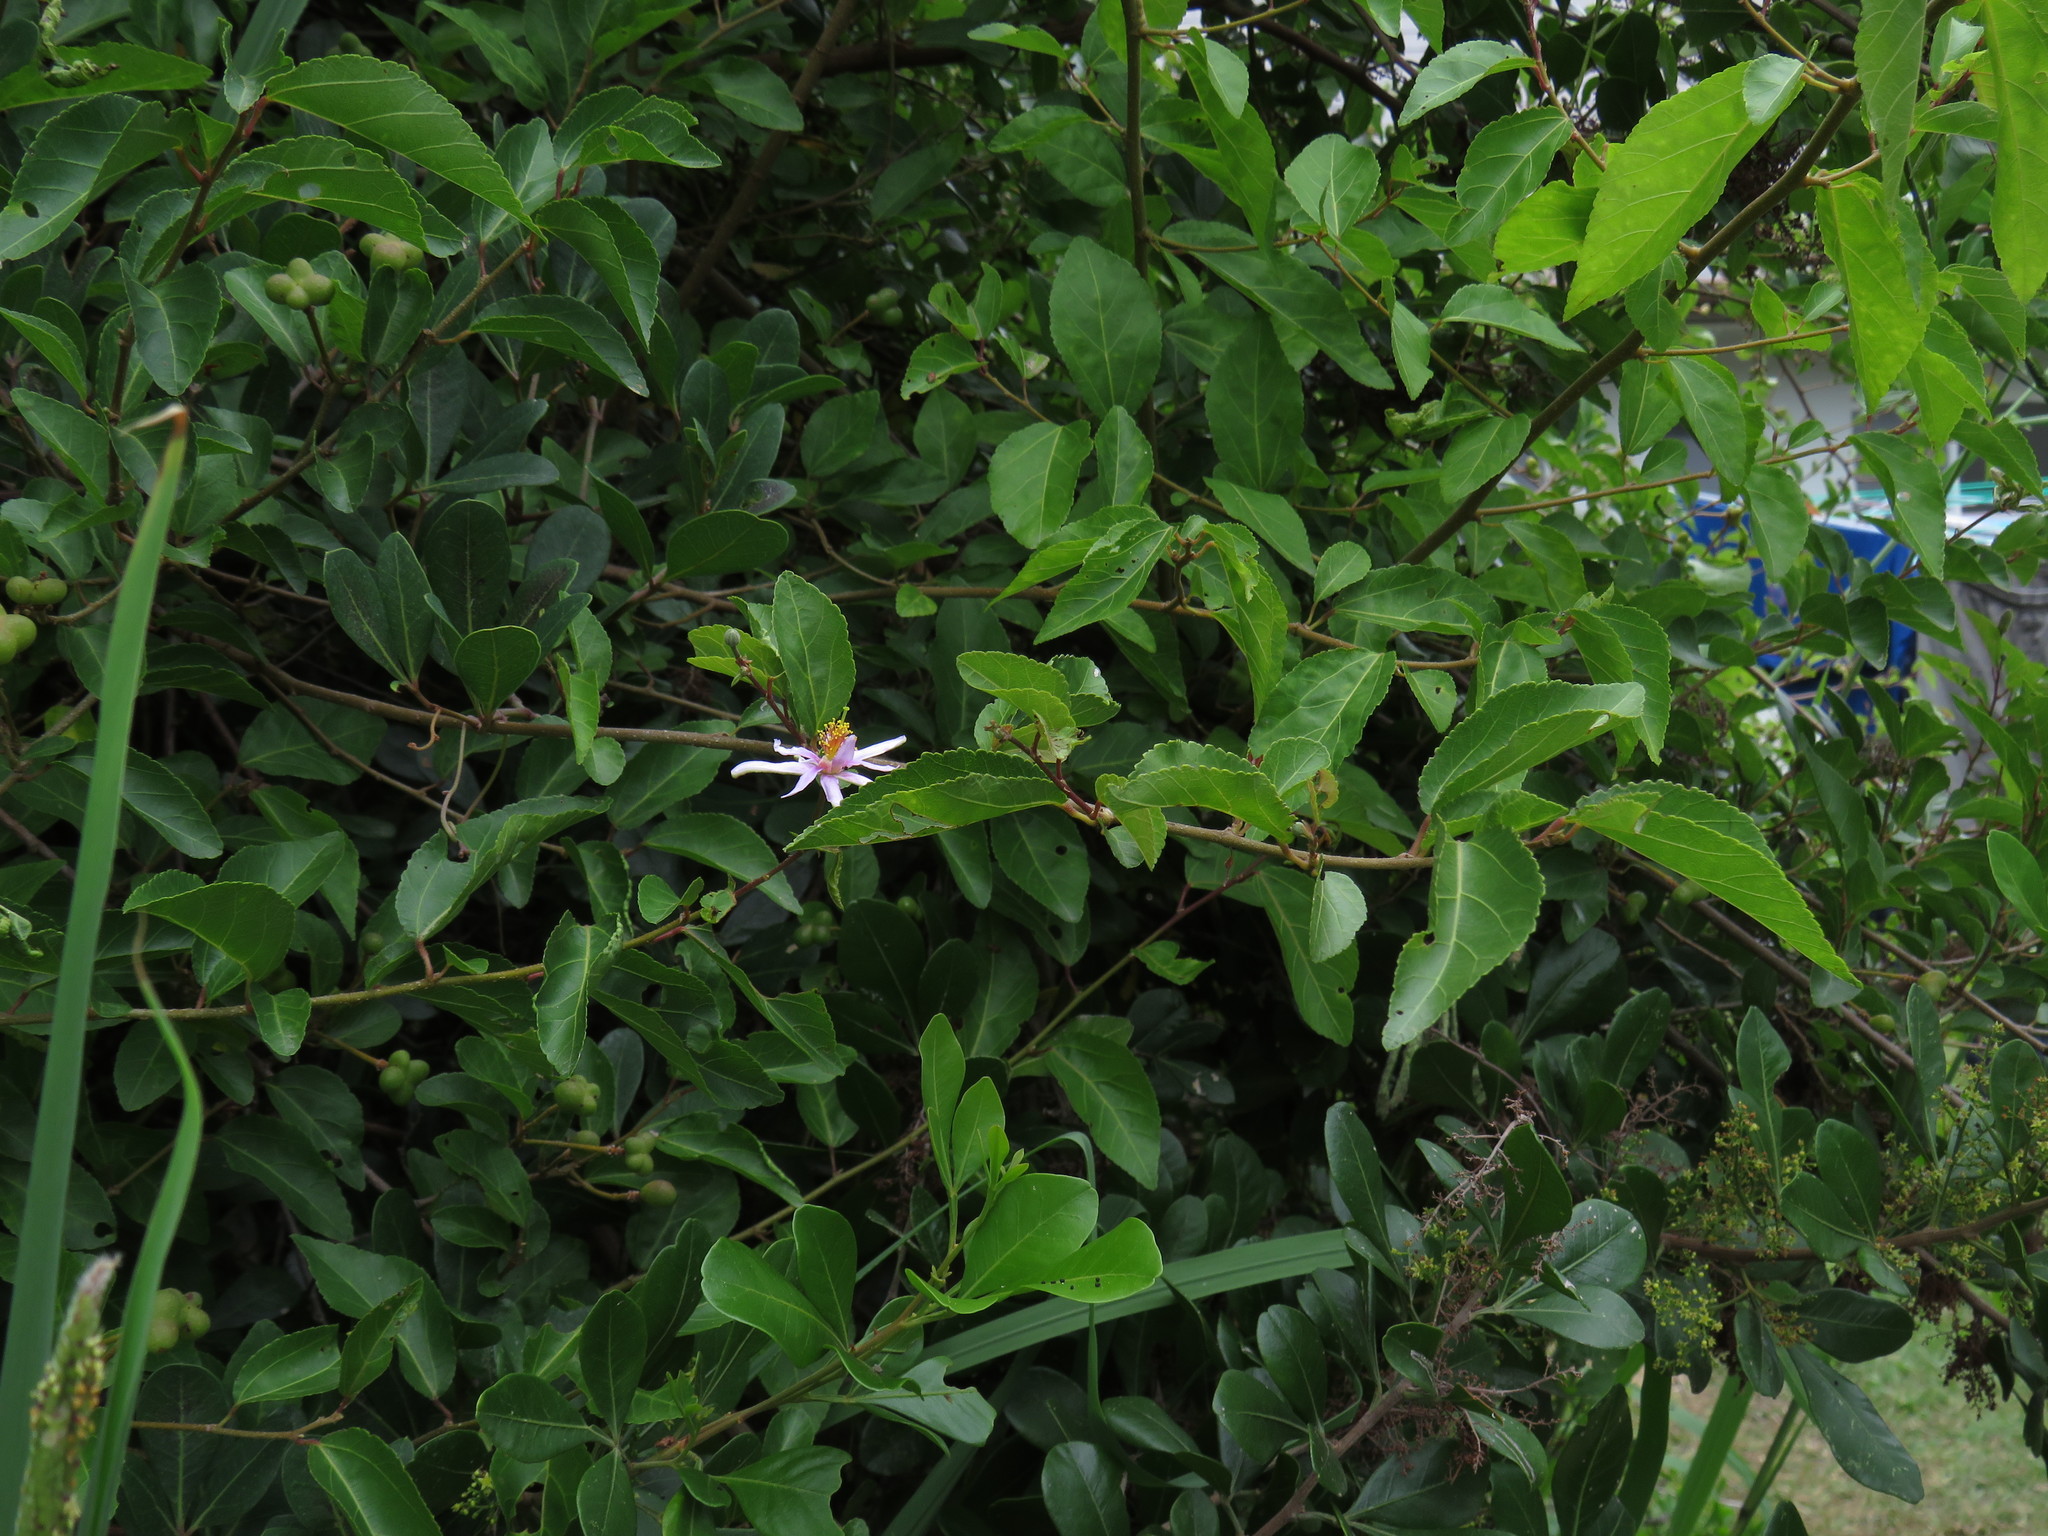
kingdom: Plantae
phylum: Tracheophyta
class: Magnoliopsida
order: Malvales
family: Malvaceae
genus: Grewia
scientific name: Grewia occidentalis
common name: Crossberry
